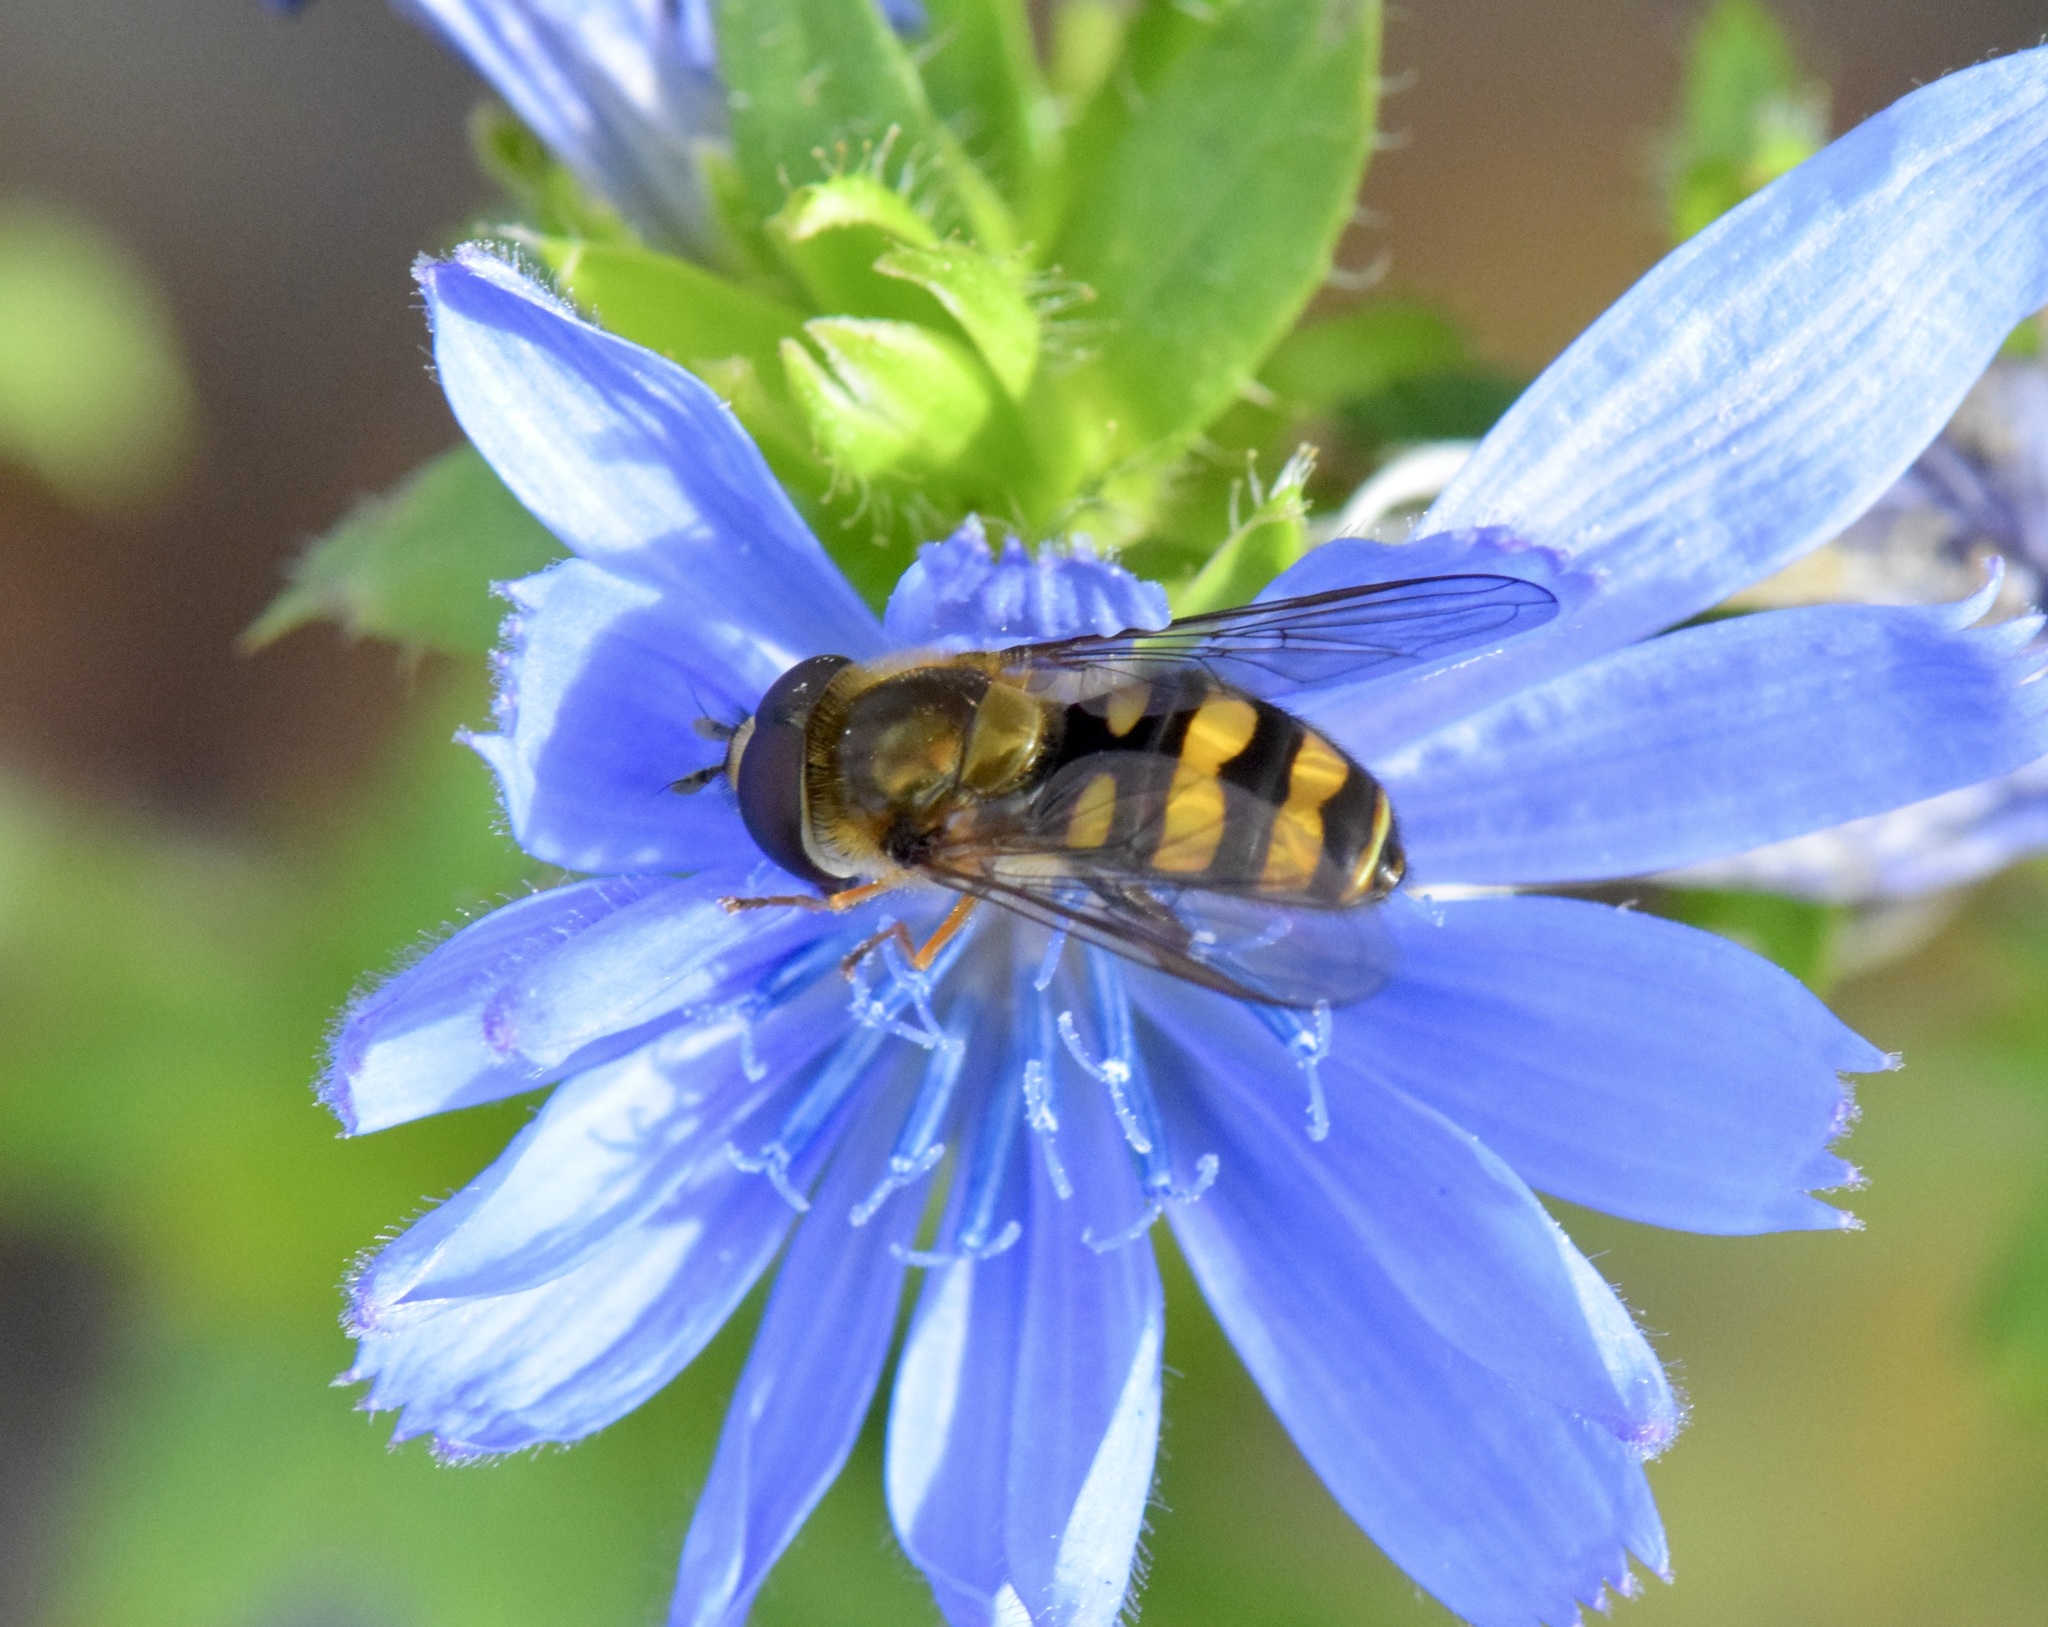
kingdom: Animalia
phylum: Arthropoda
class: Insecta
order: Diptera
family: Syrphidae
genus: Eupeodes
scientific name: Eupeodes
